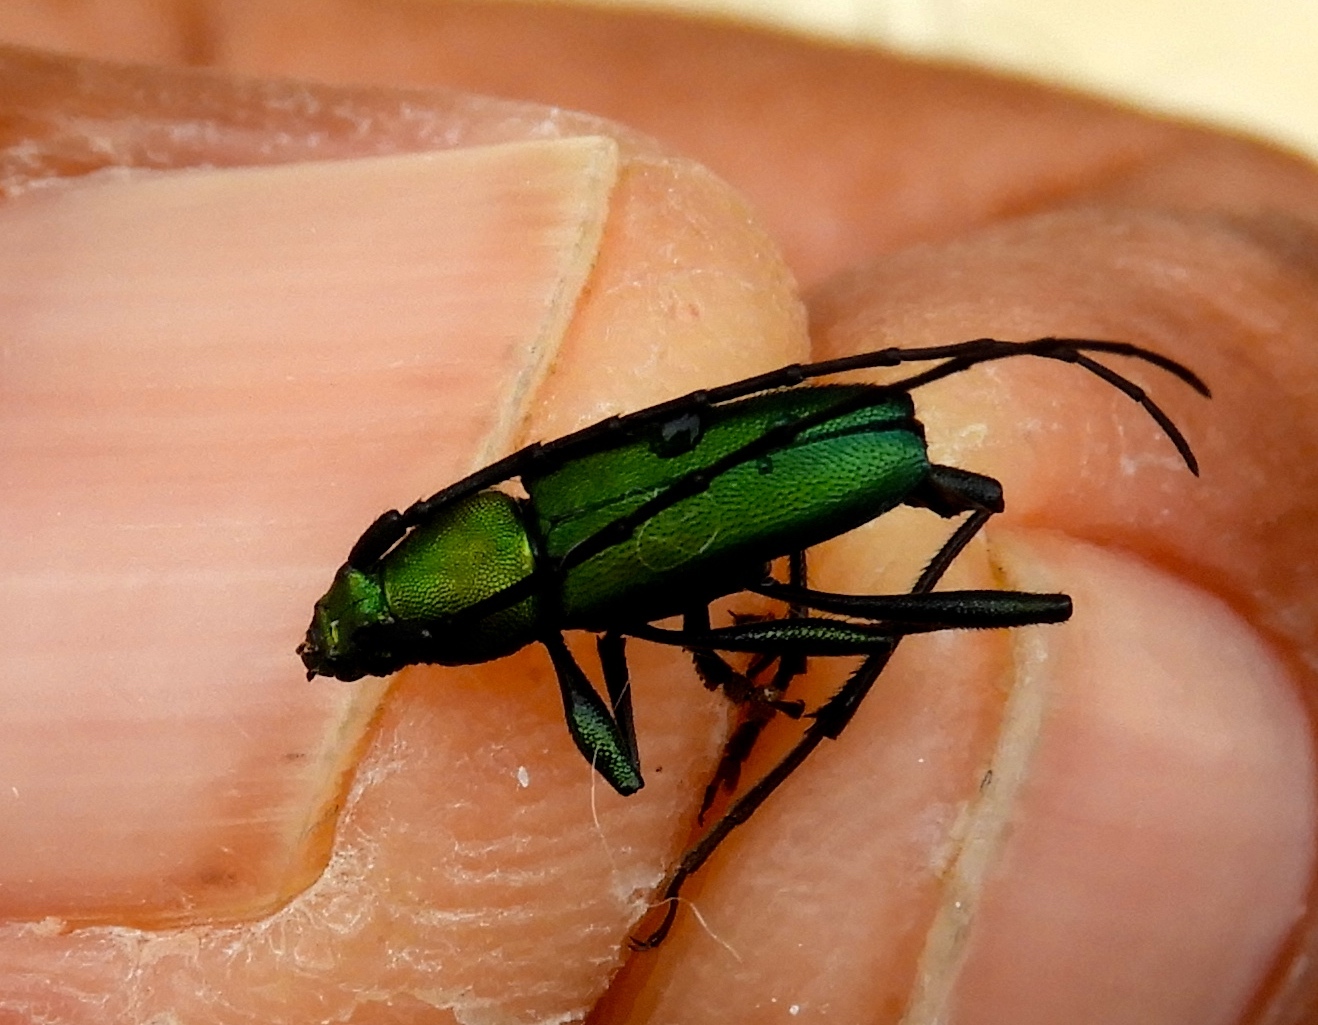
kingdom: Animalia
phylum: Arthropoda
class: Insecta
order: Coleoptera
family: Cerambycidae
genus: Chrysoprasis
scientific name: Chrysoprasis
